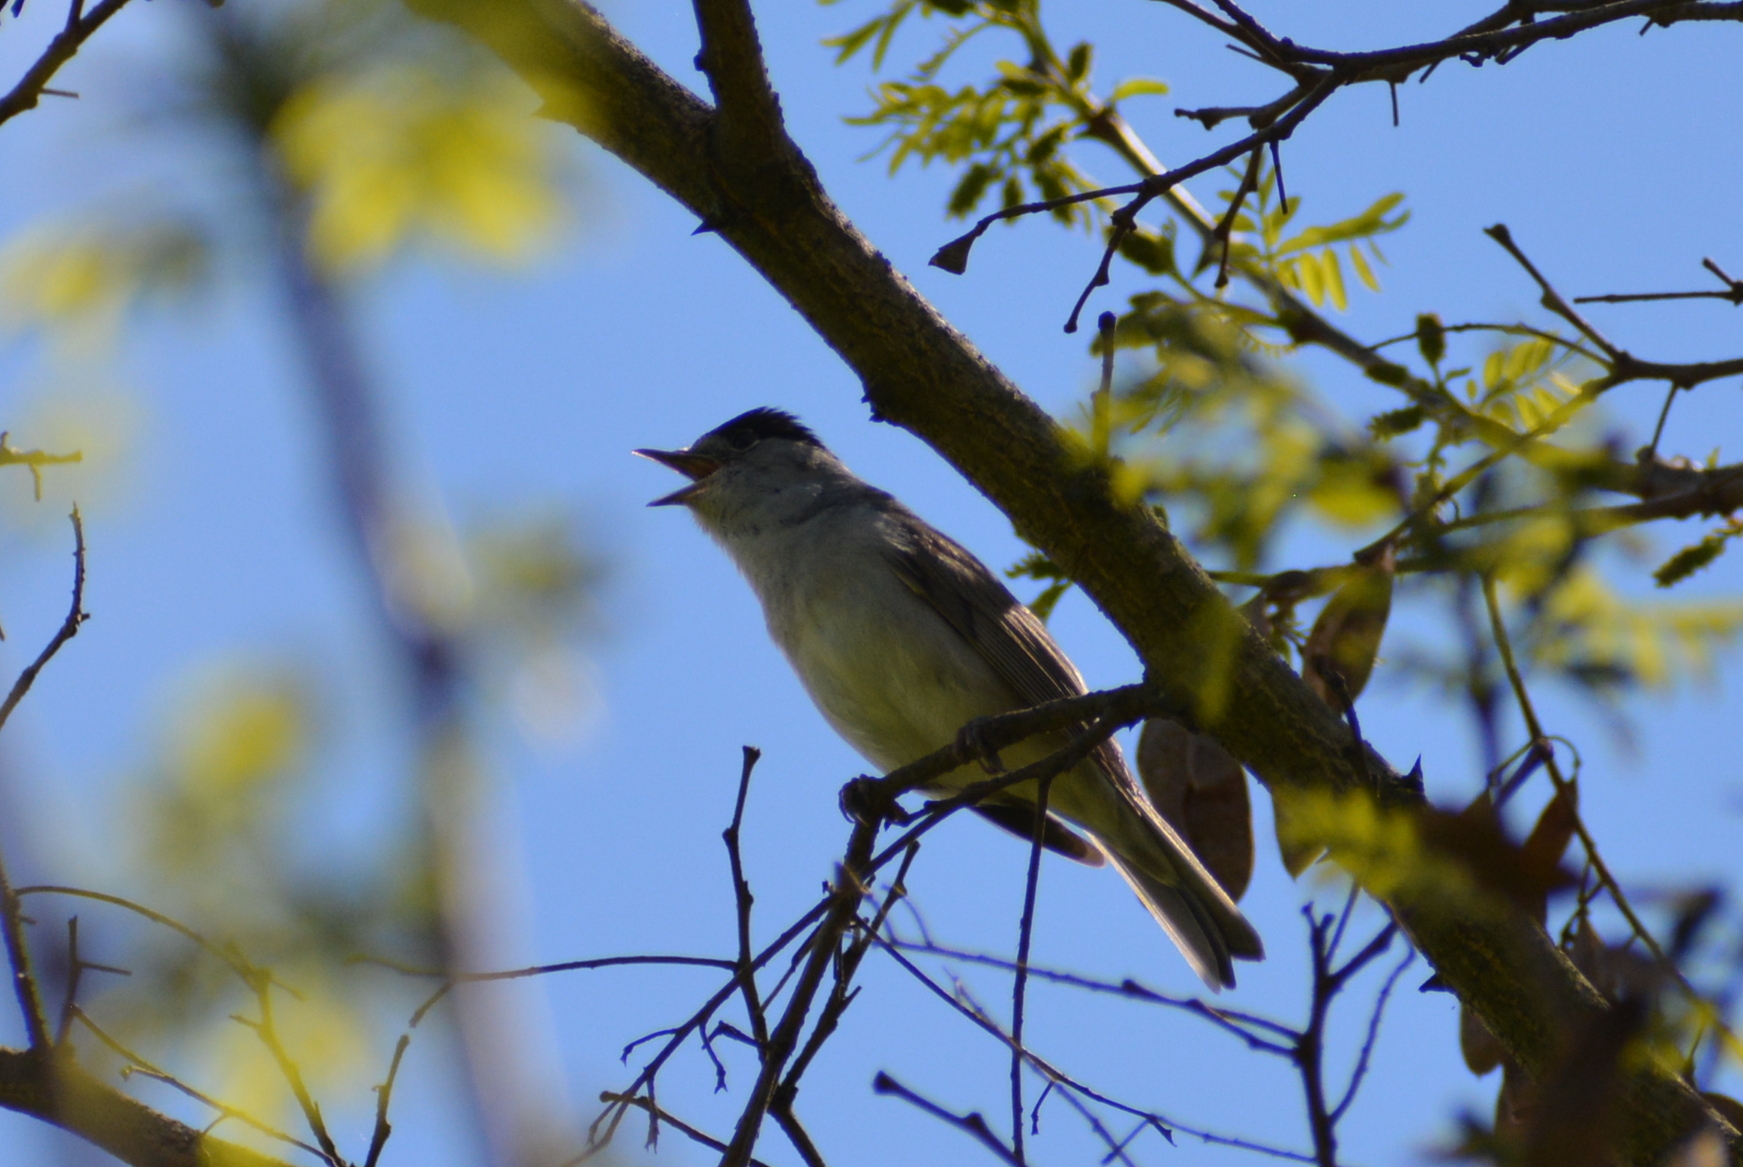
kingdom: Animalia
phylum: Chordata
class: Aves
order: Passeriformes
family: Sylviidae
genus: Sylvia
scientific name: Sylvia atricapilla
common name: Eurasian blackcap
